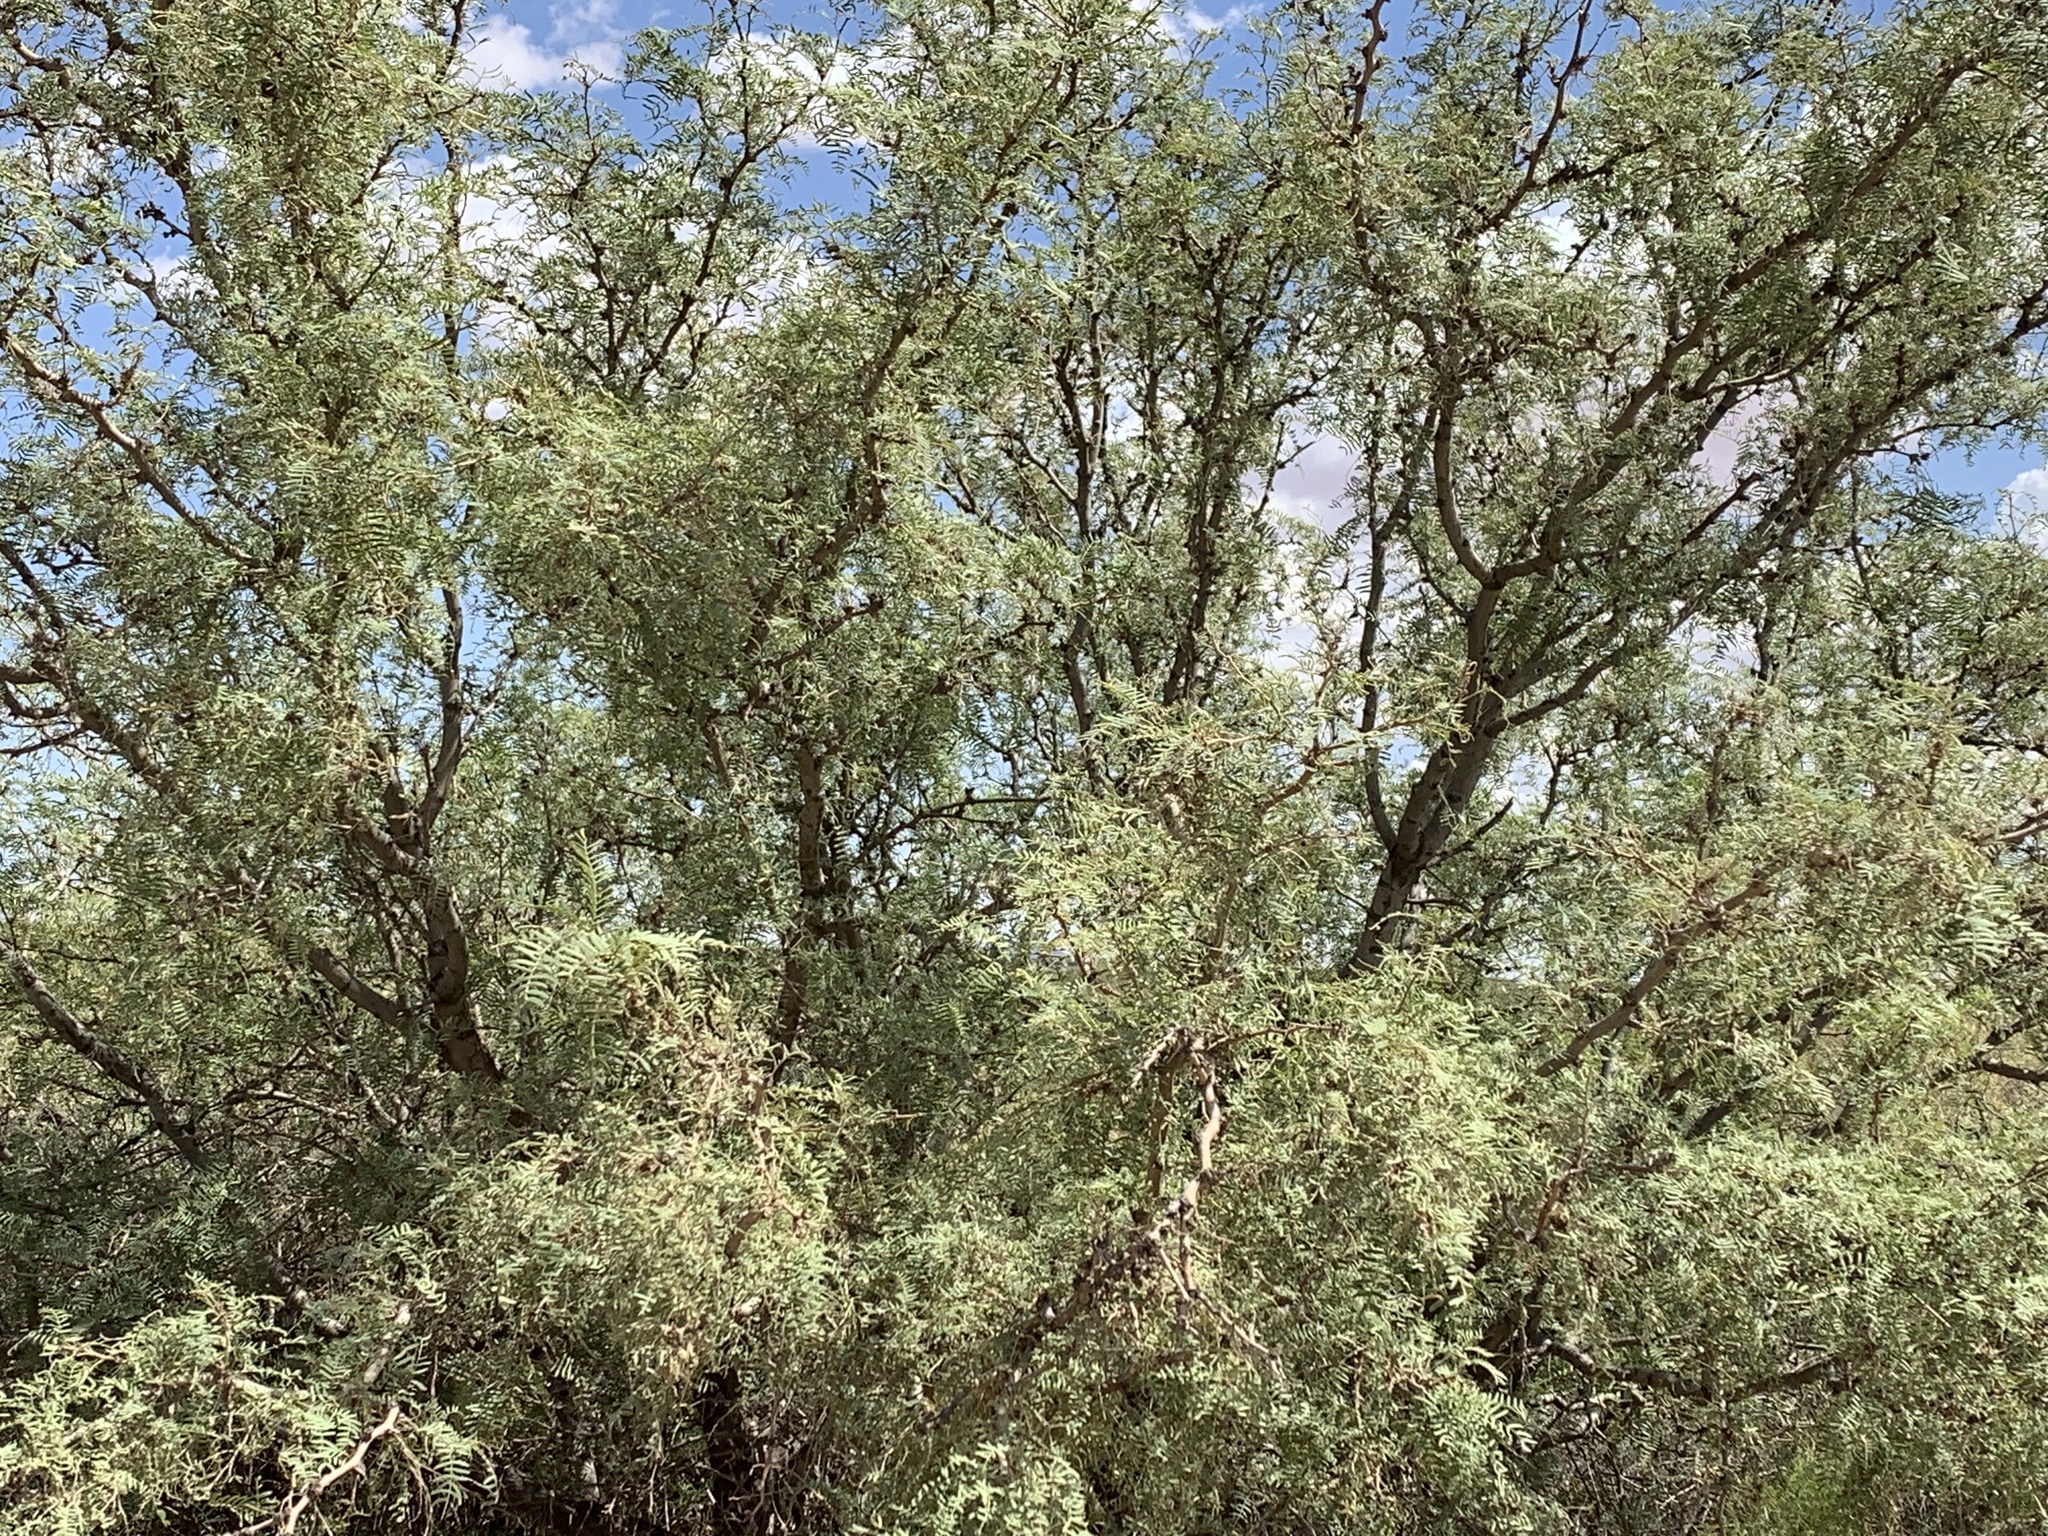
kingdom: Plantae
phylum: Tracheophyta
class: Magnoliopsida
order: Fabales
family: Fabaceae
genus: Prosopis
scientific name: Prosopis glandulosa
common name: Honey mesquite
